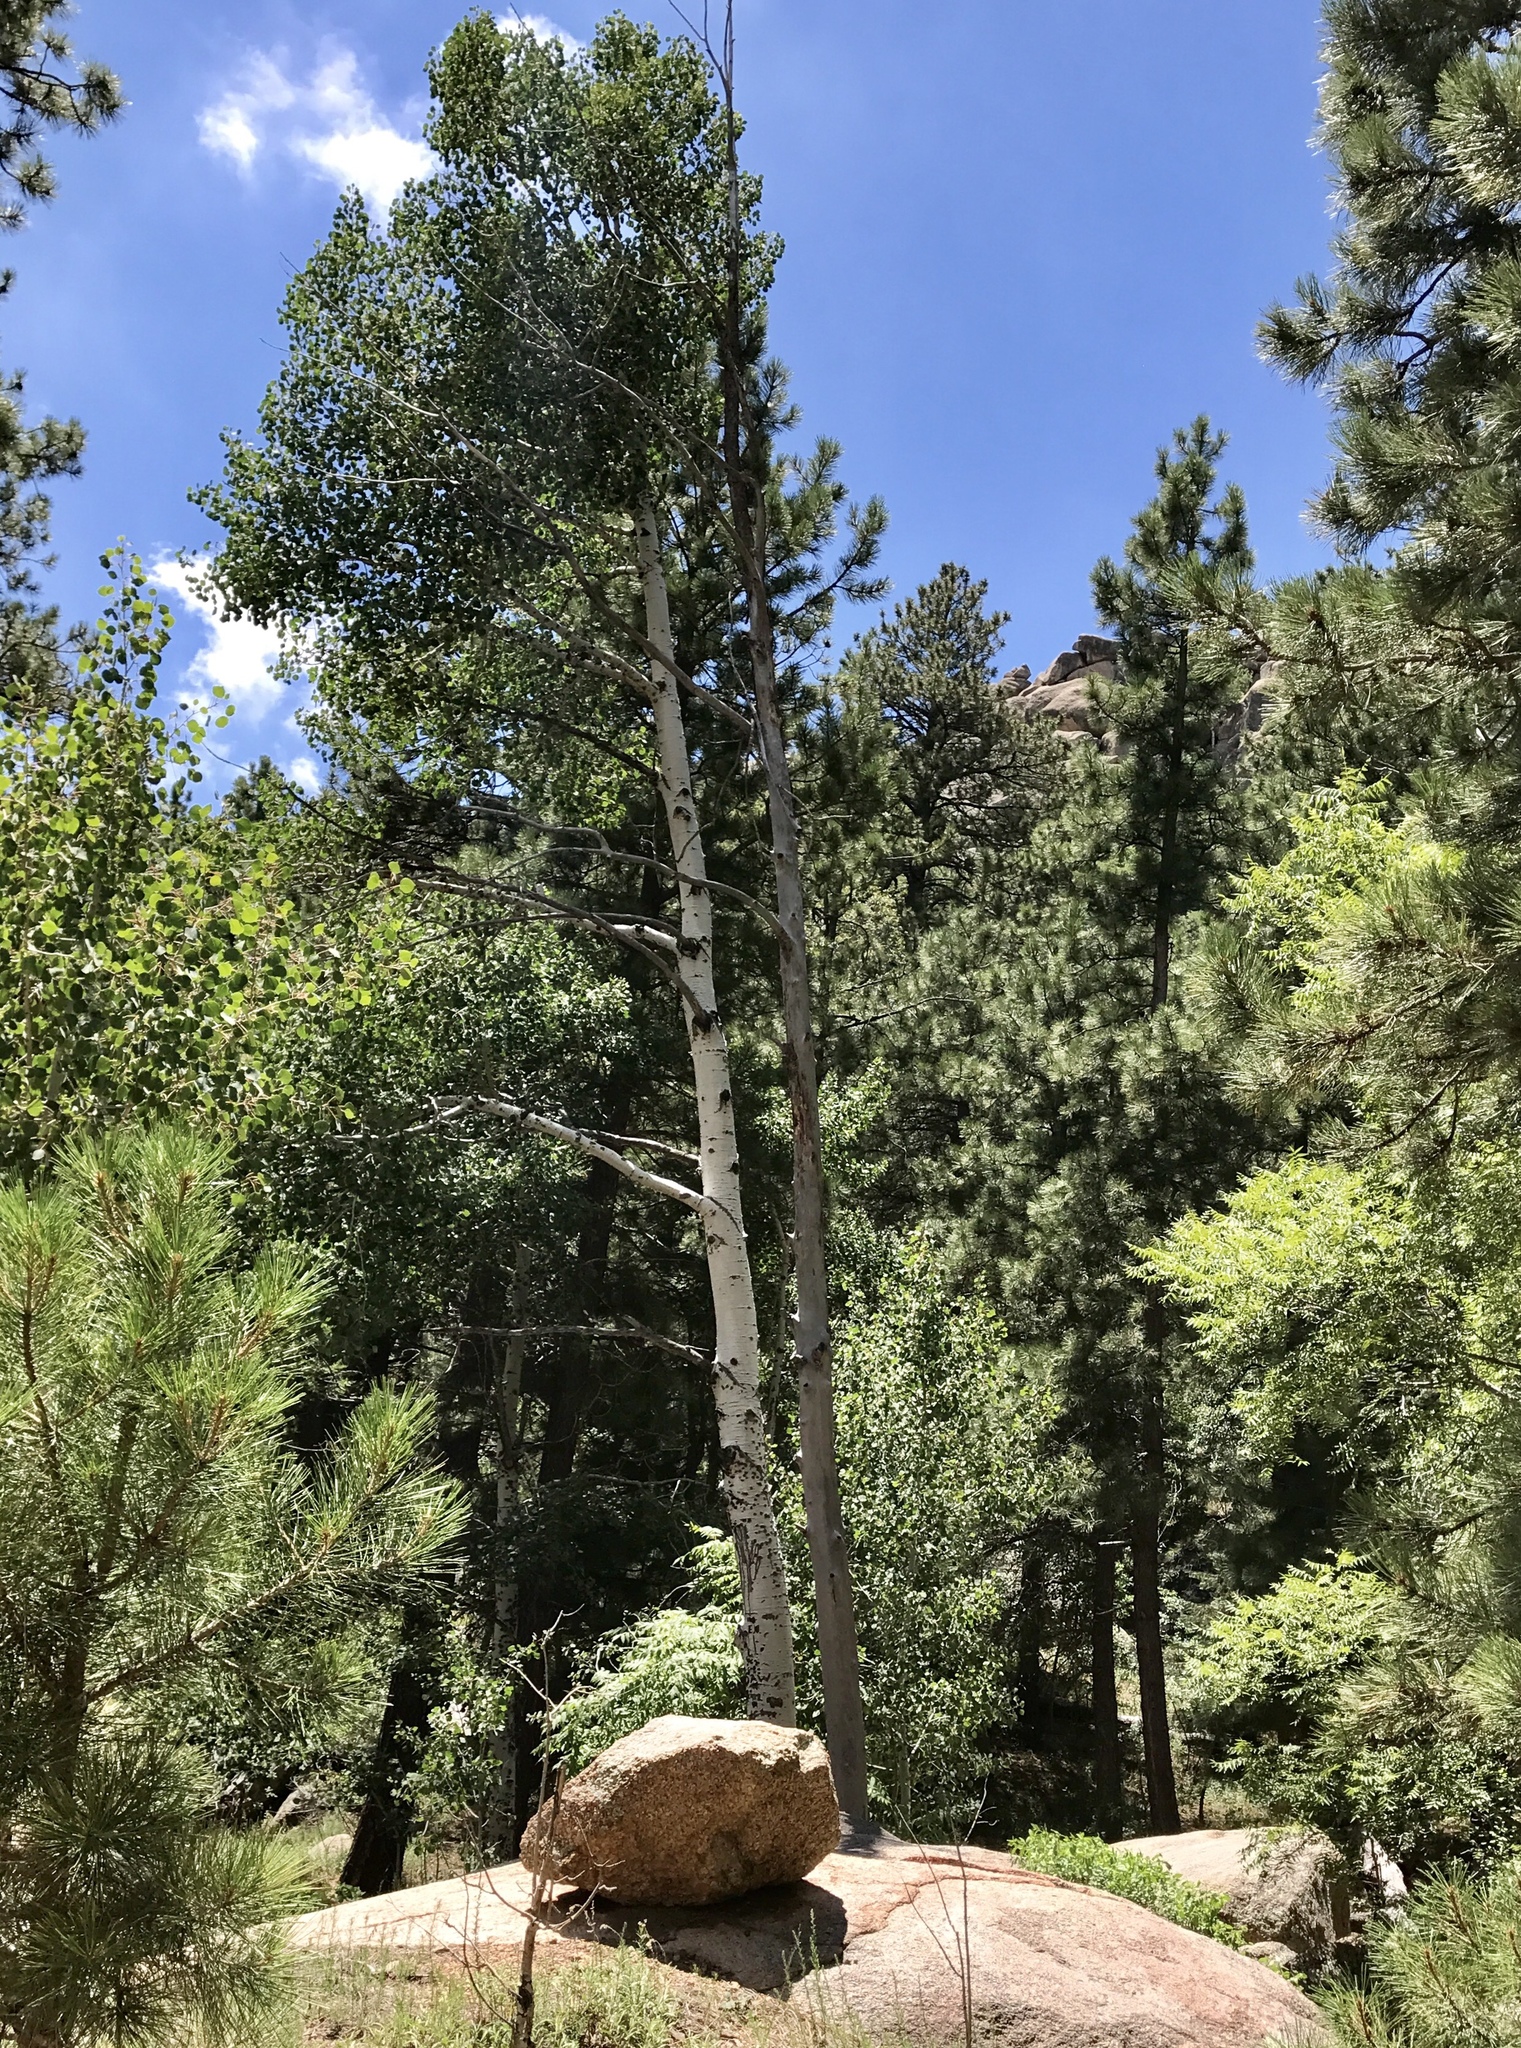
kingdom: Plantae
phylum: Tracheophyta
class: Magnoliopsida
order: Malpighiales
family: Salicaceae
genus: Populus
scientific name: Populus tremuloides
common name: Quaking aspen
